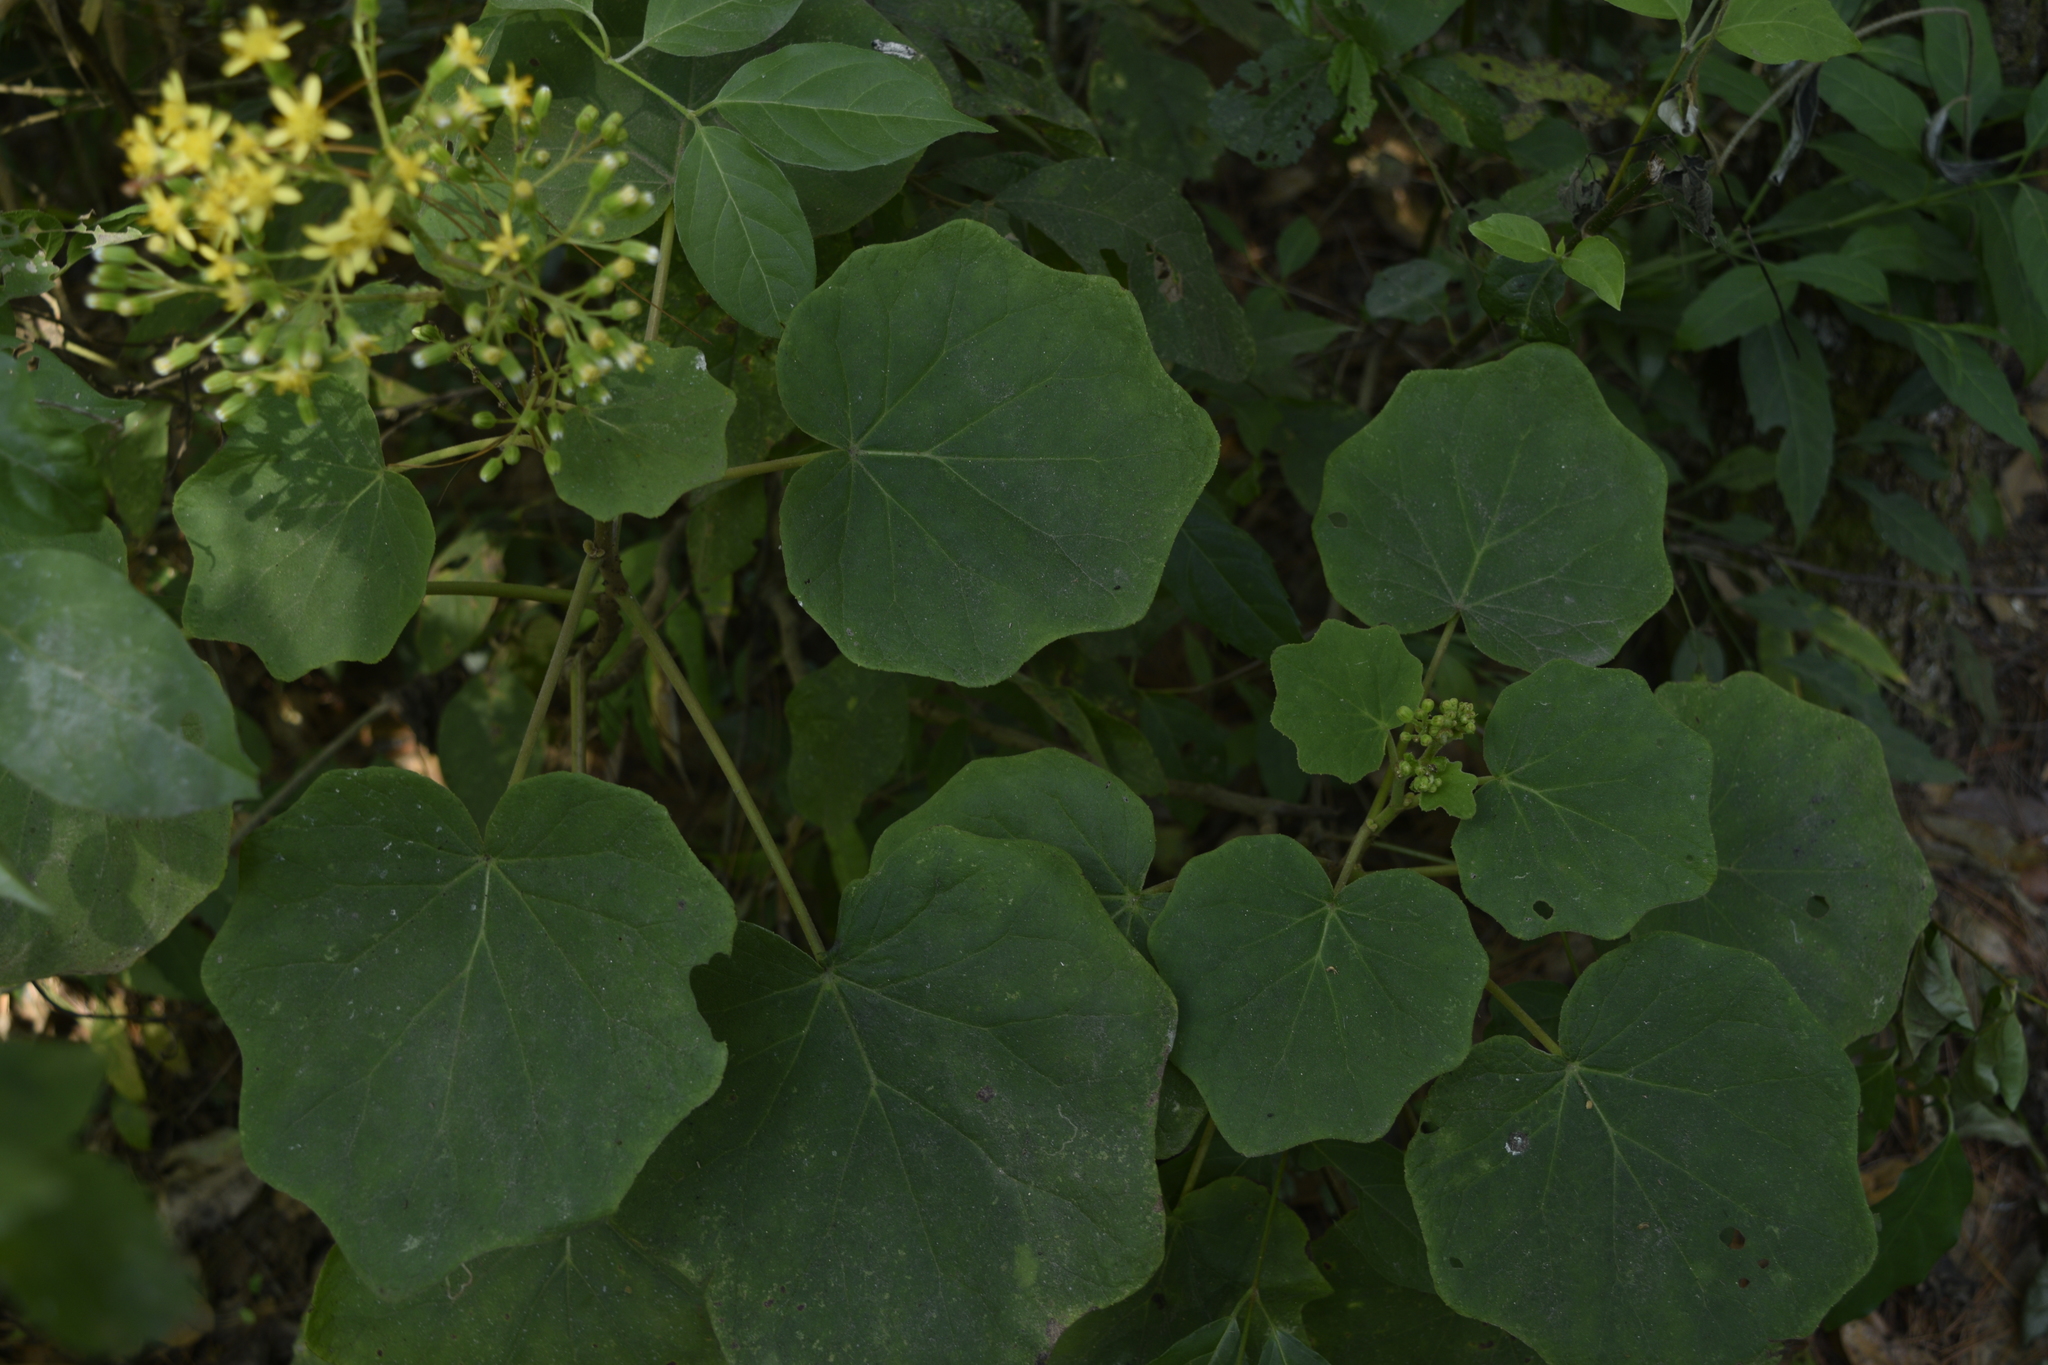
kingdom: Plantae
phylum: Tracheophyta
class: Magnoliopsida
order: Asterales
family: Asteraceae
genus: Roldana
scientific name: Roldana petasioides
